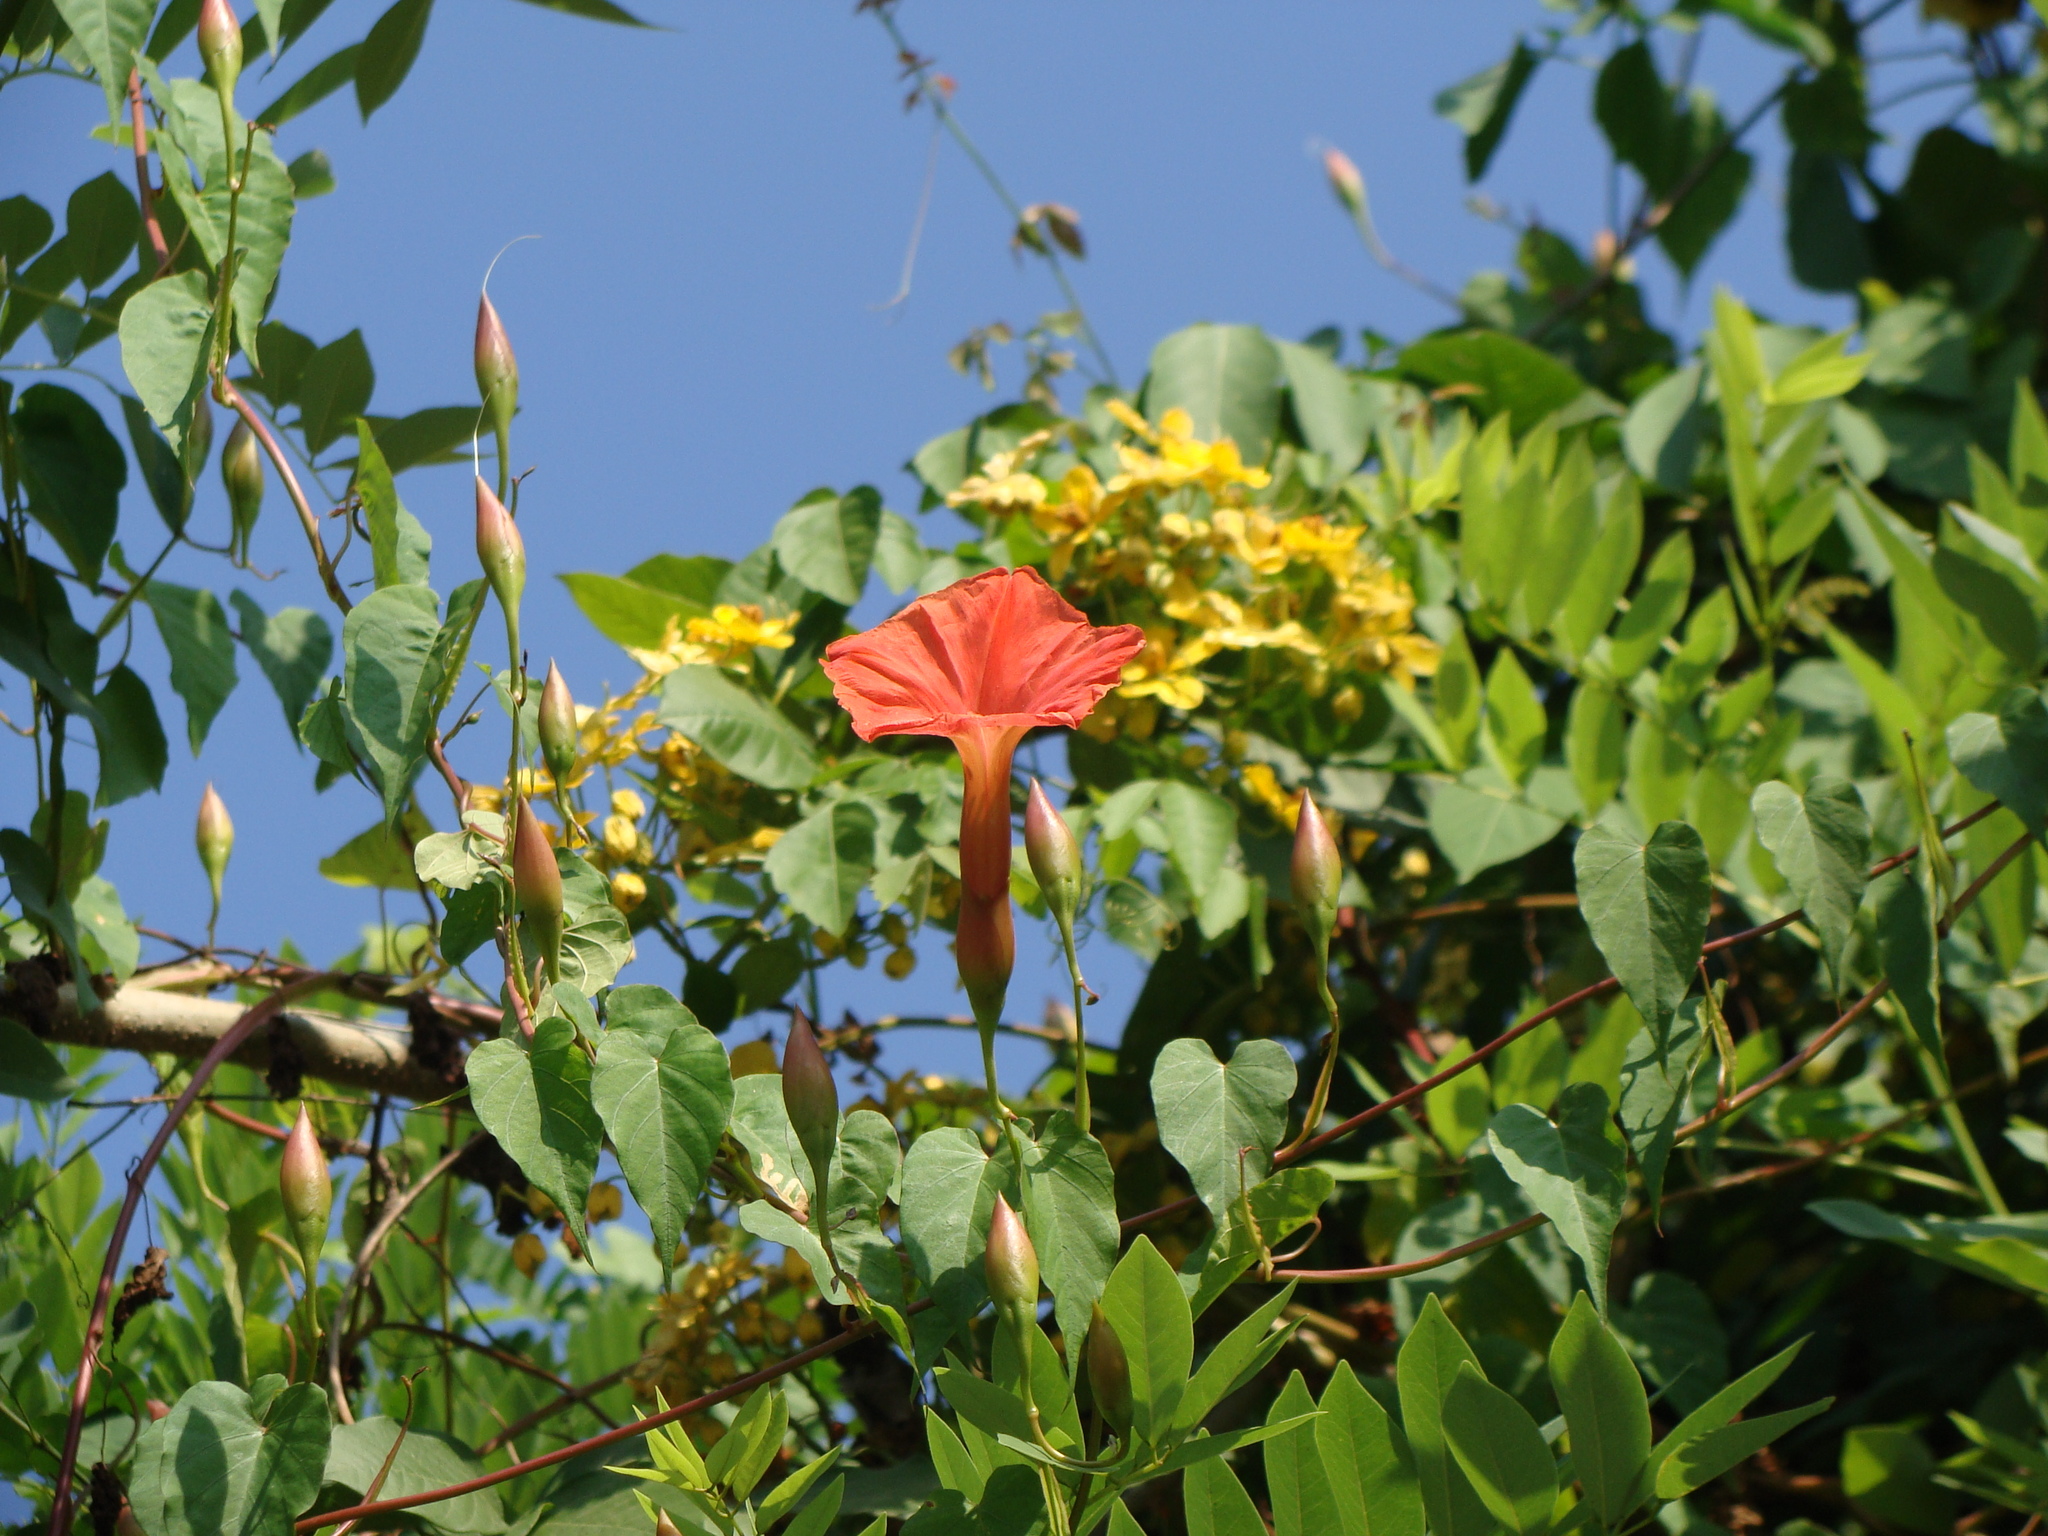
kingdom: Plantae
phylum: Tracheophyta
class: Magnoliopsida
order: Solanales
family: Convolvulaceae
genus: Operculina
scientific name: Operculina pteripes
